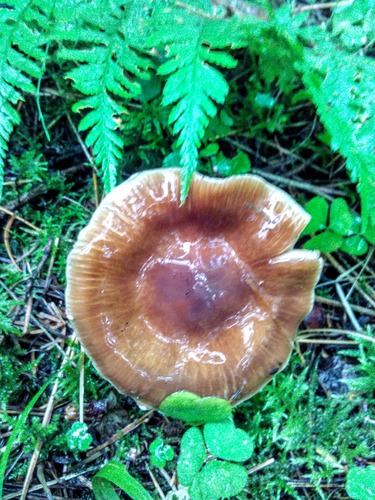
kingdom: Fungi
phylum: Basidiomycota
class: Agaricomycetes
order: Agaricales
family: Cortinariaceae
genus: Cortinarius
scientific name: Cortinarius
